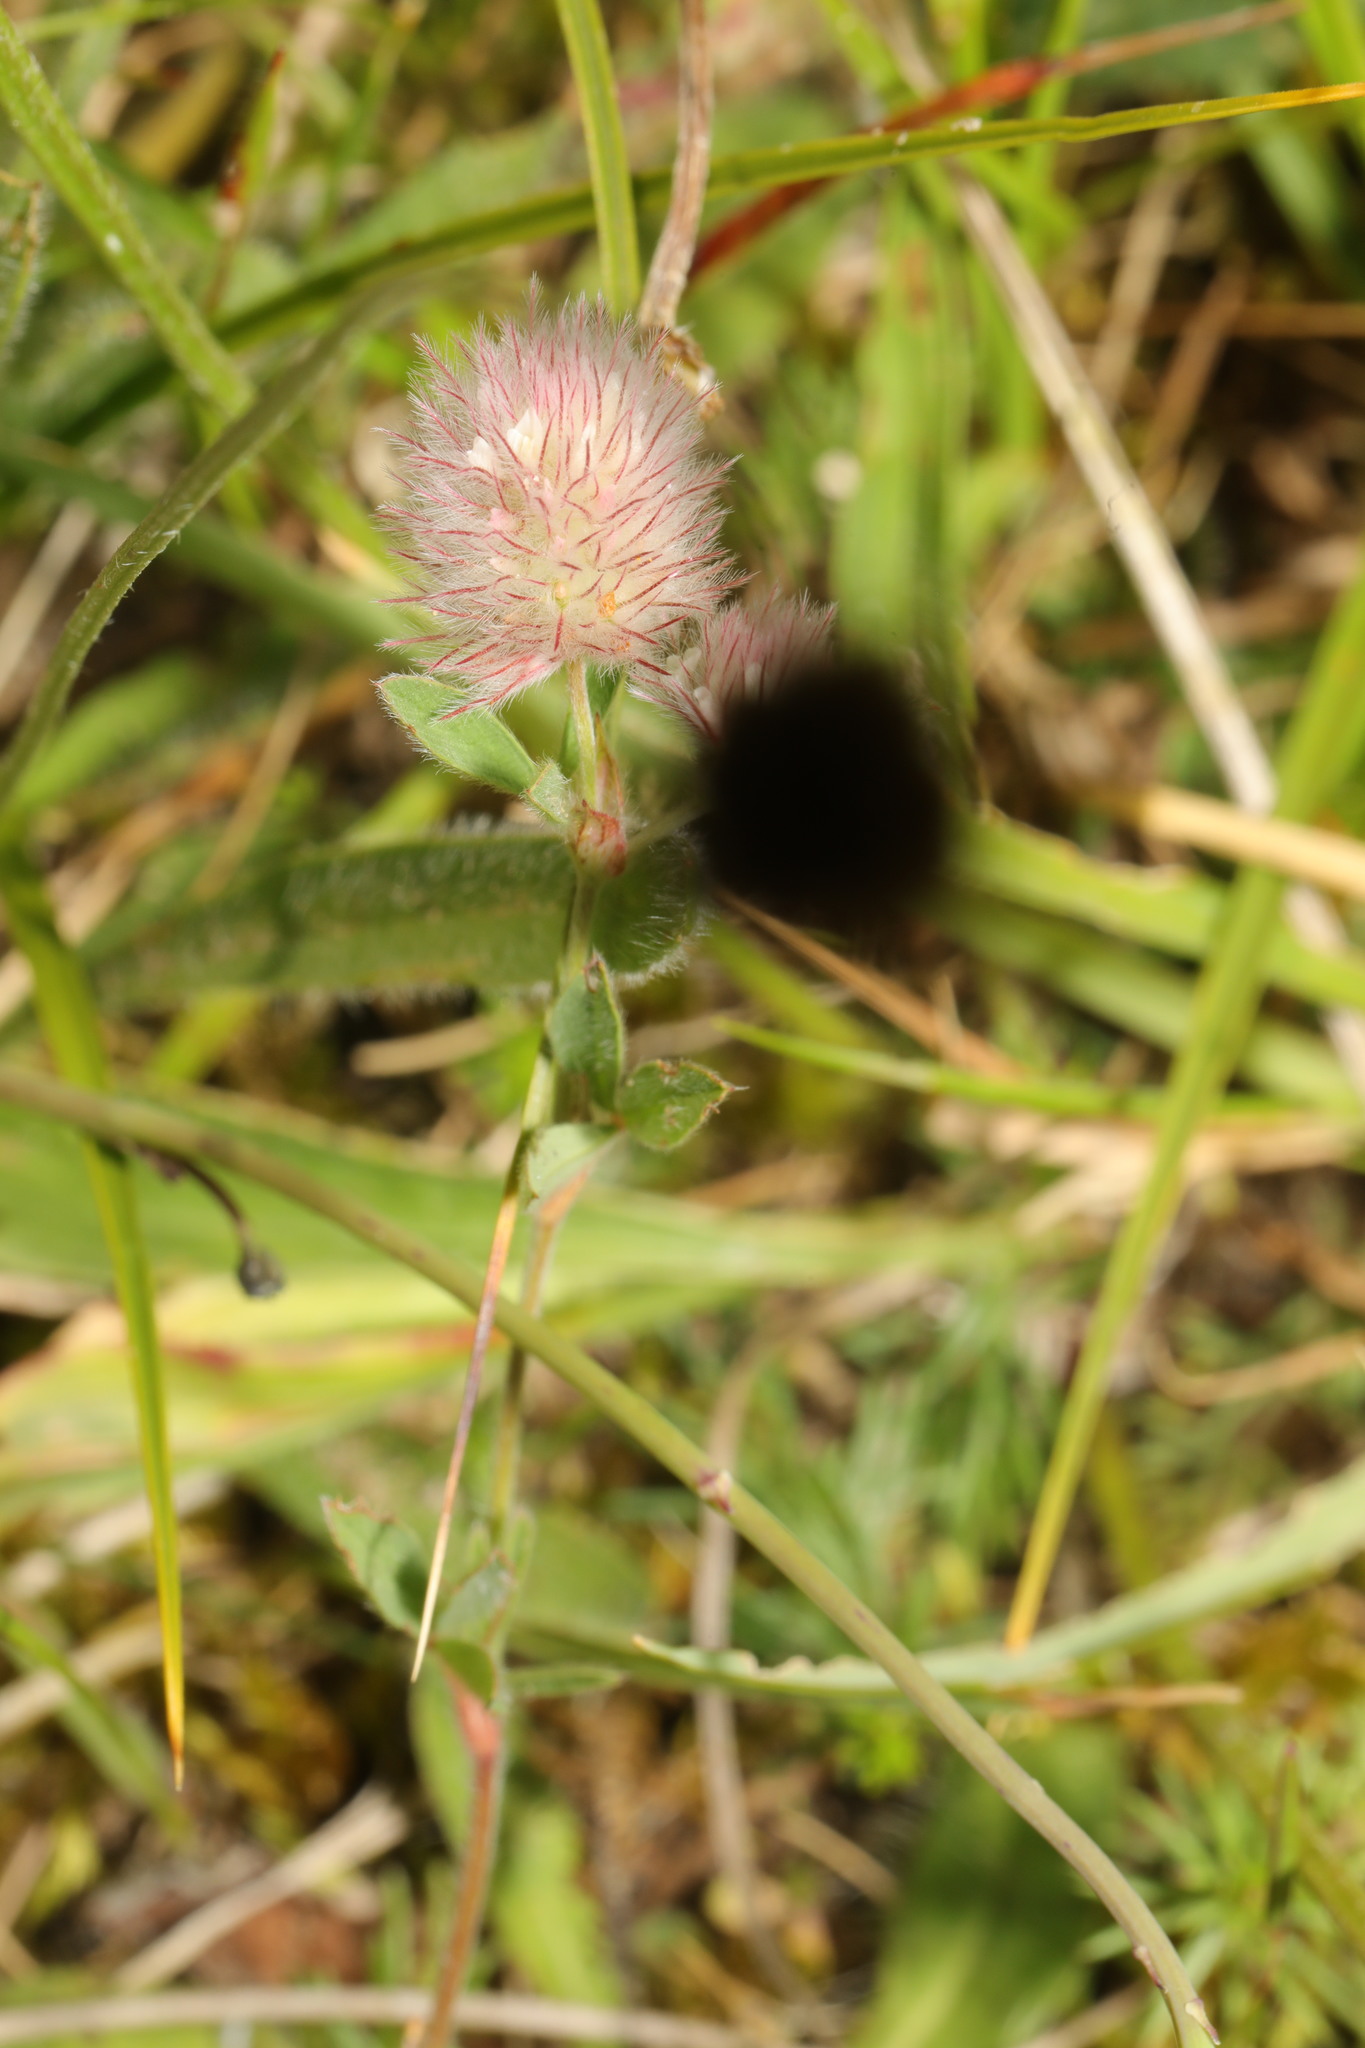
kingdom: Plantae
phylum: Tracheophyta
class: Magnoliopsida
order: Fabales
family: Fabaceae
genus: Trifolium
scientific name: Trifolium arvense
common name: Hare's-foot clover
